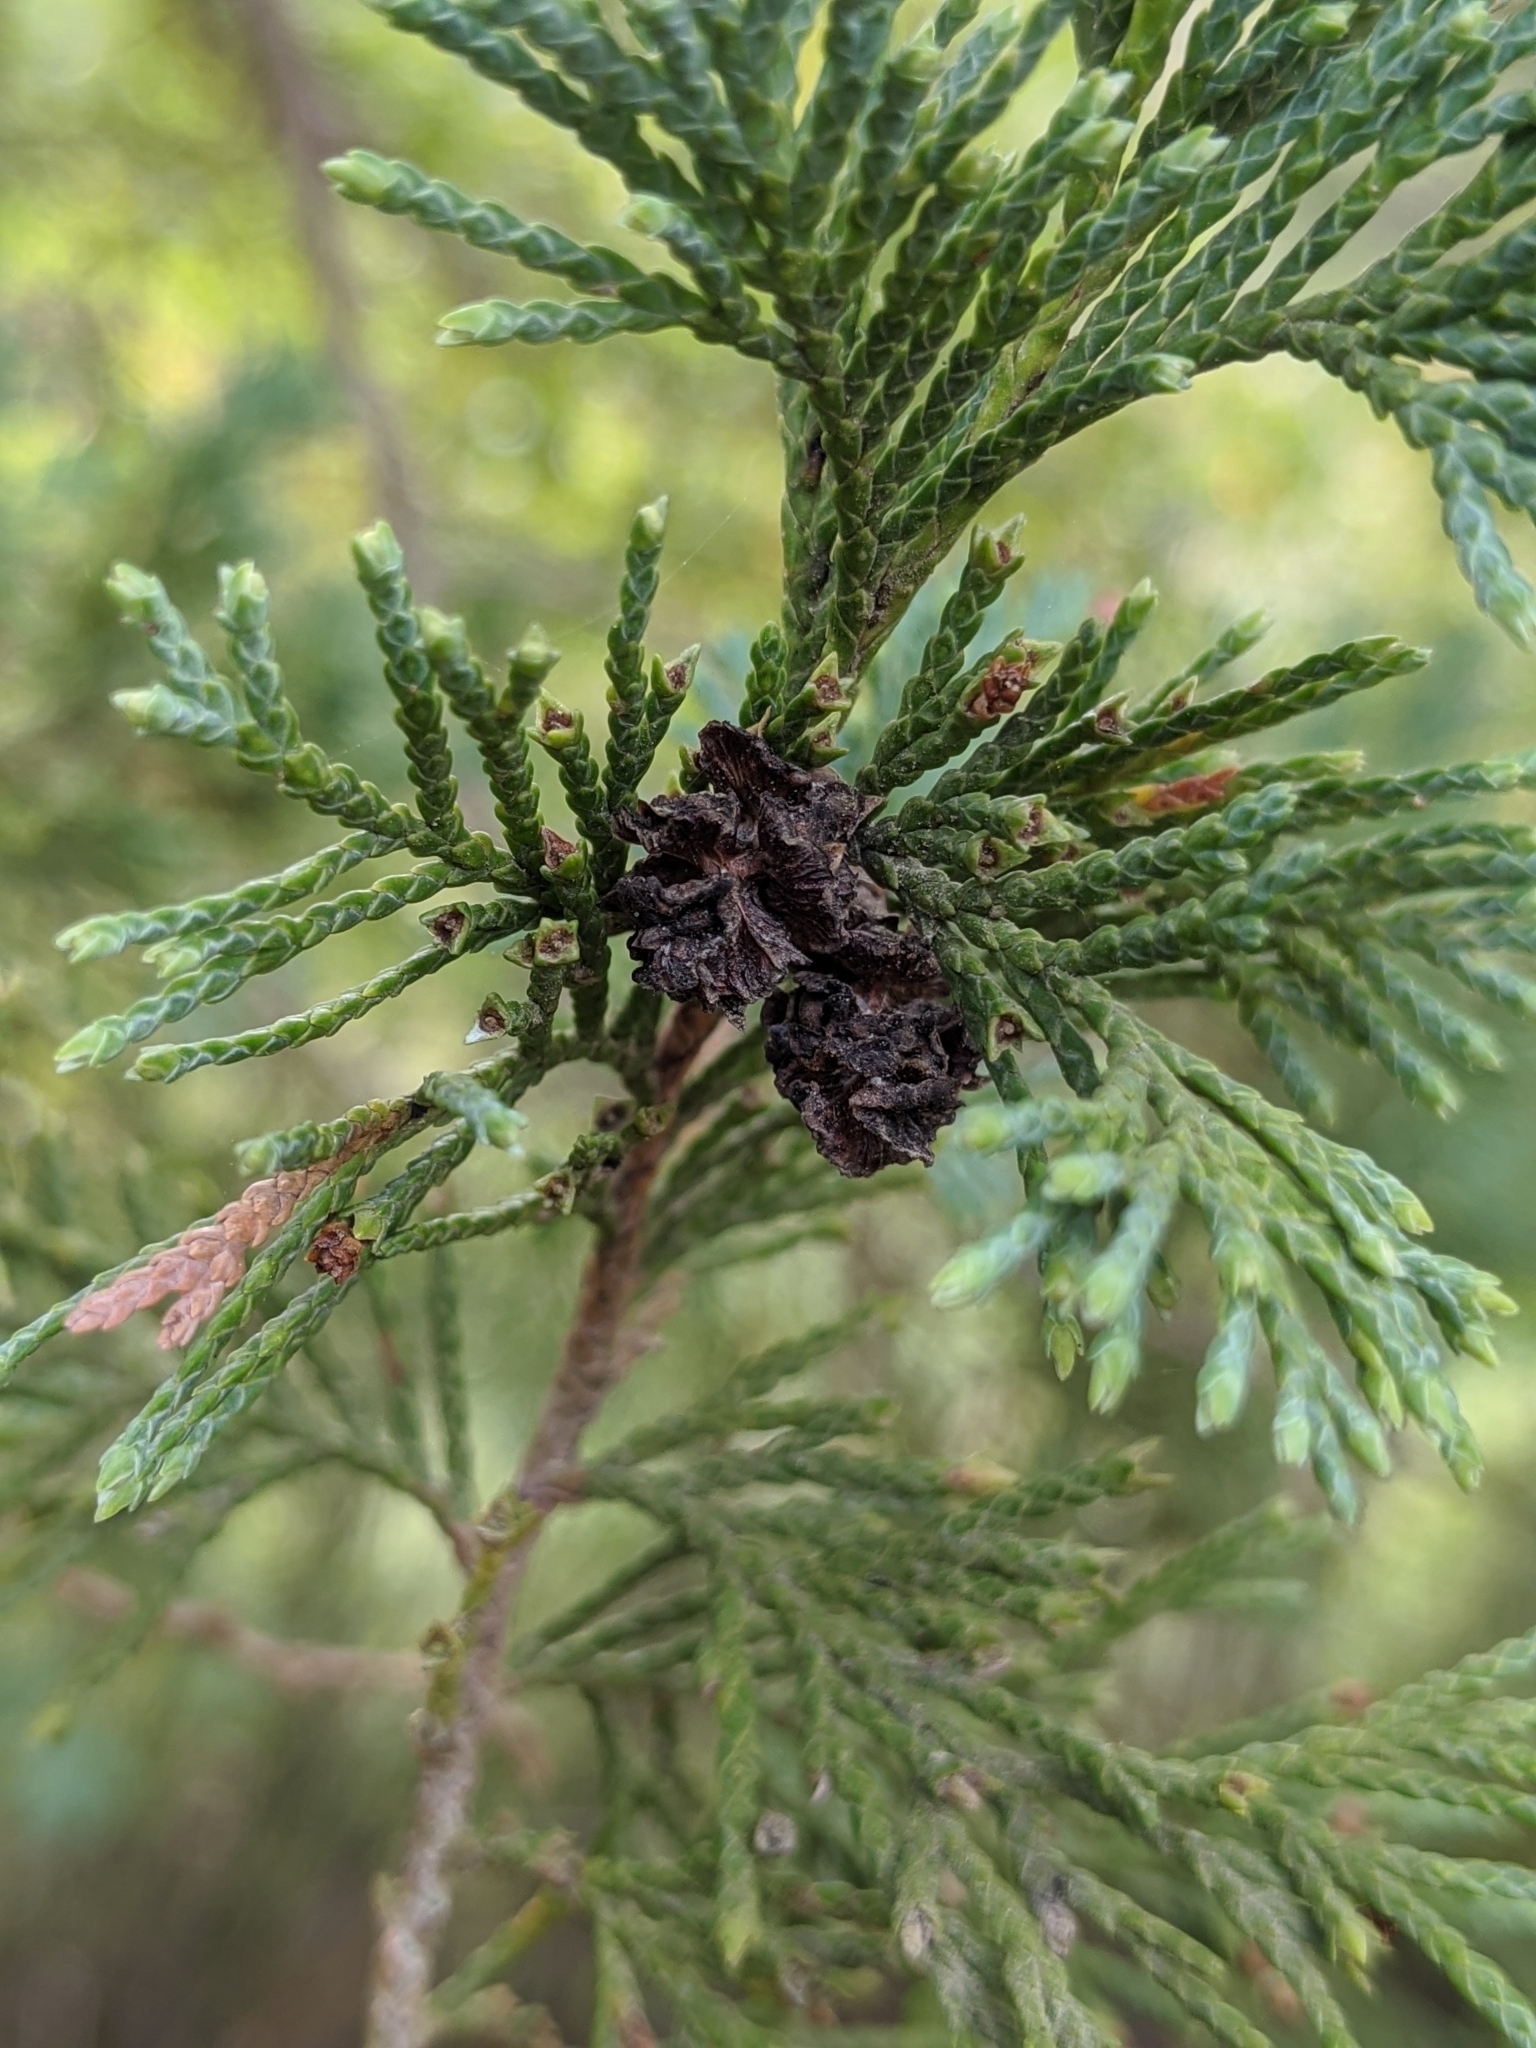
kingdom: Plantae
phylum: Tracheophyta
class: Pinopsida
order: Pinales
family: Cupressaceae
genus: Chamaecyparis
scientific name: Chamaecyparis thyoides
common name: Atlantic white cedar
